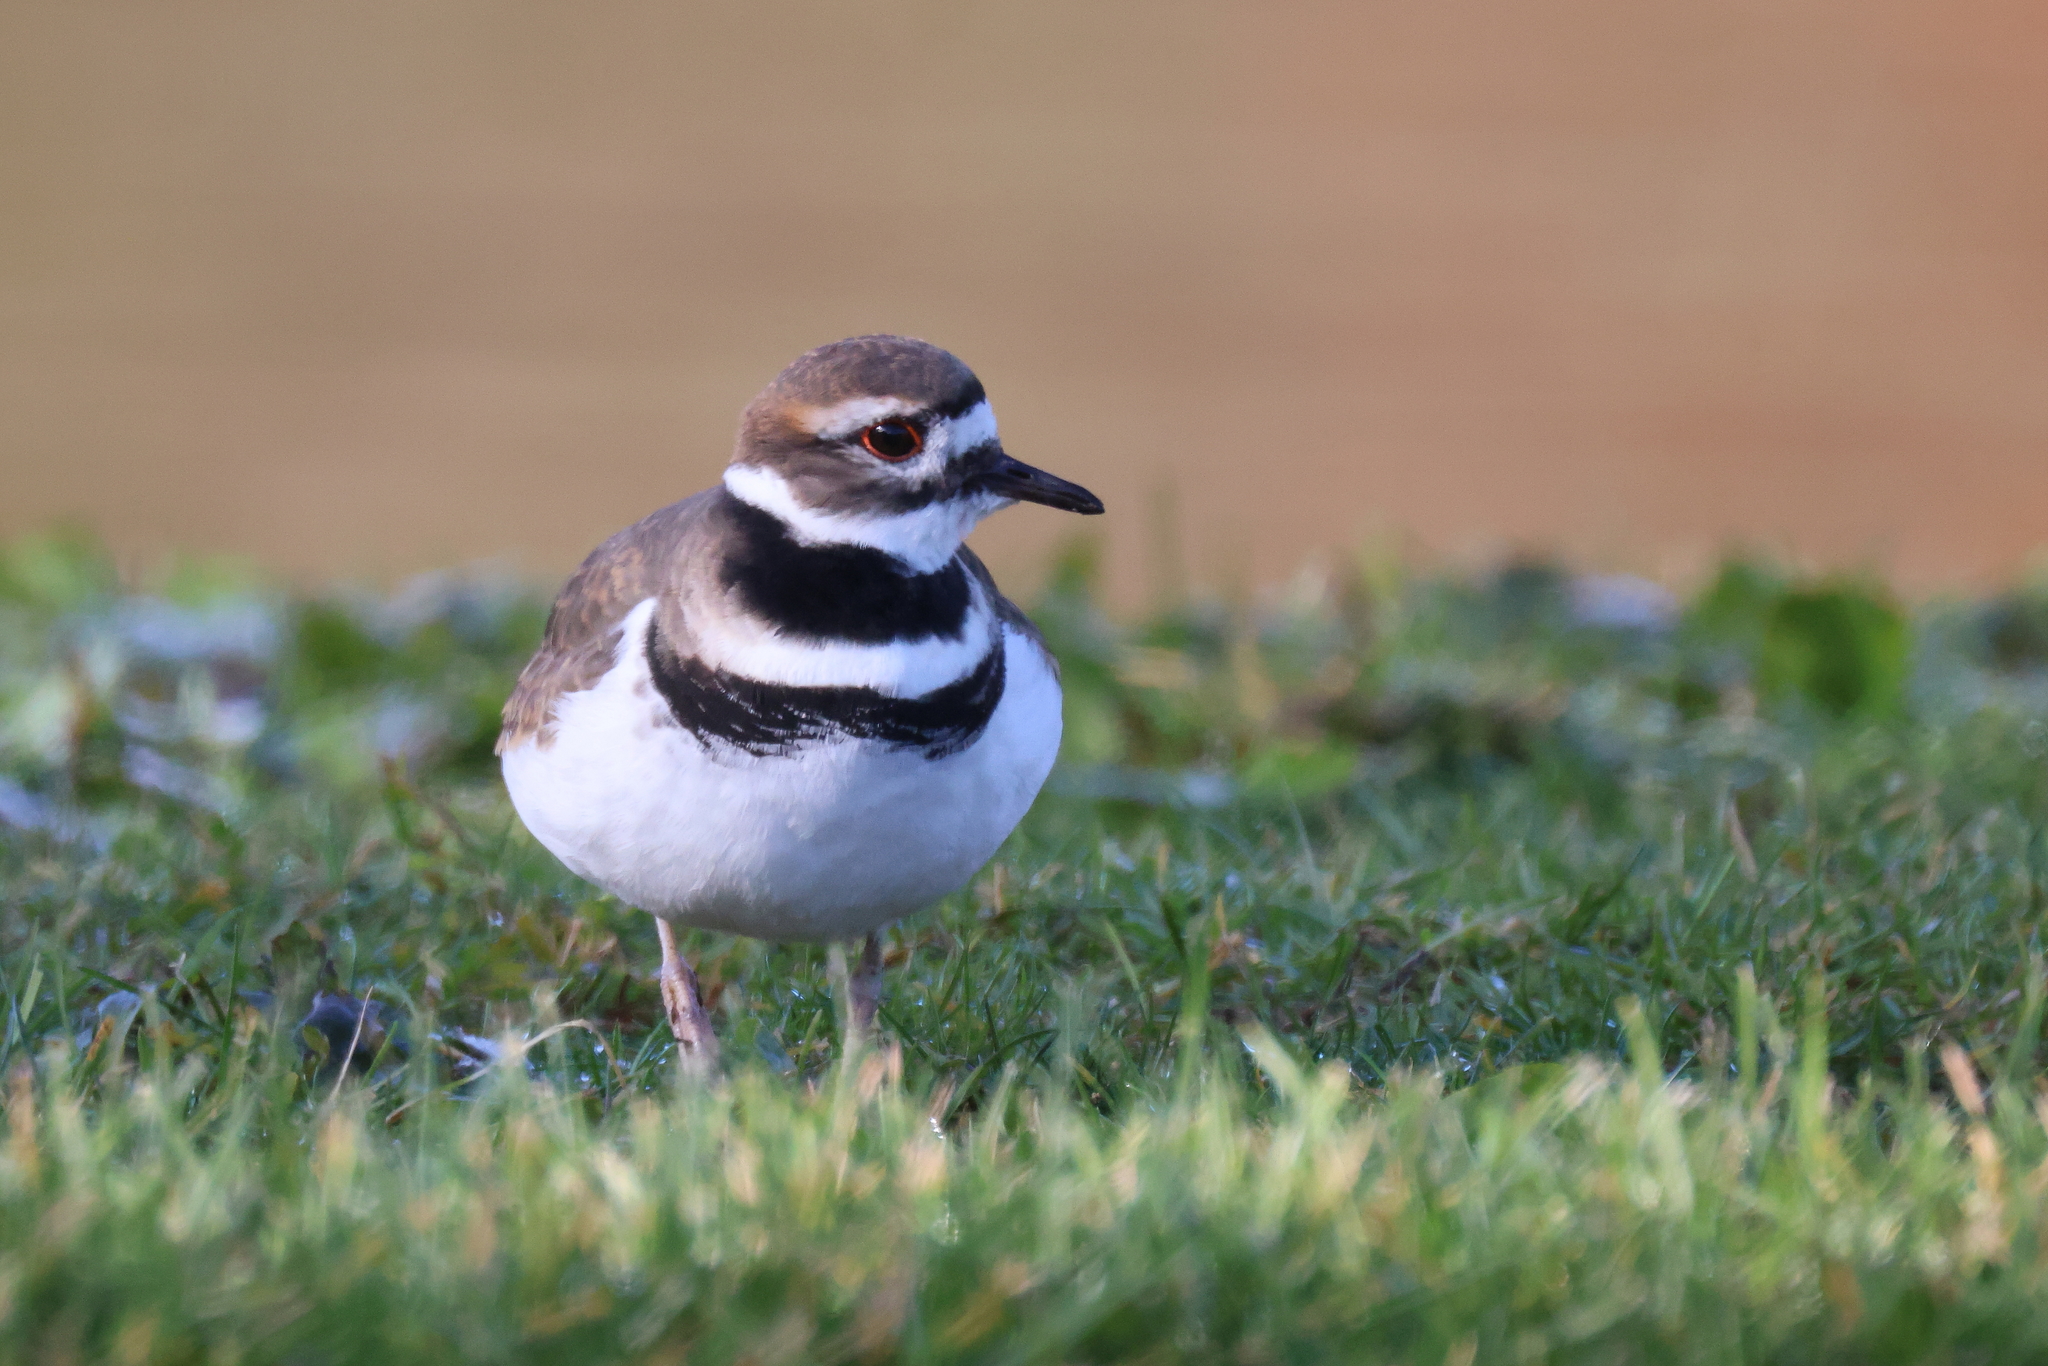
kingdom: Animalia
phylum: Chordata
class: Aves
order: Charadriiformes
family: Charadriidae
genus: Charadrius
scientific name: Charadrius vociferus
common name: Killdeer
